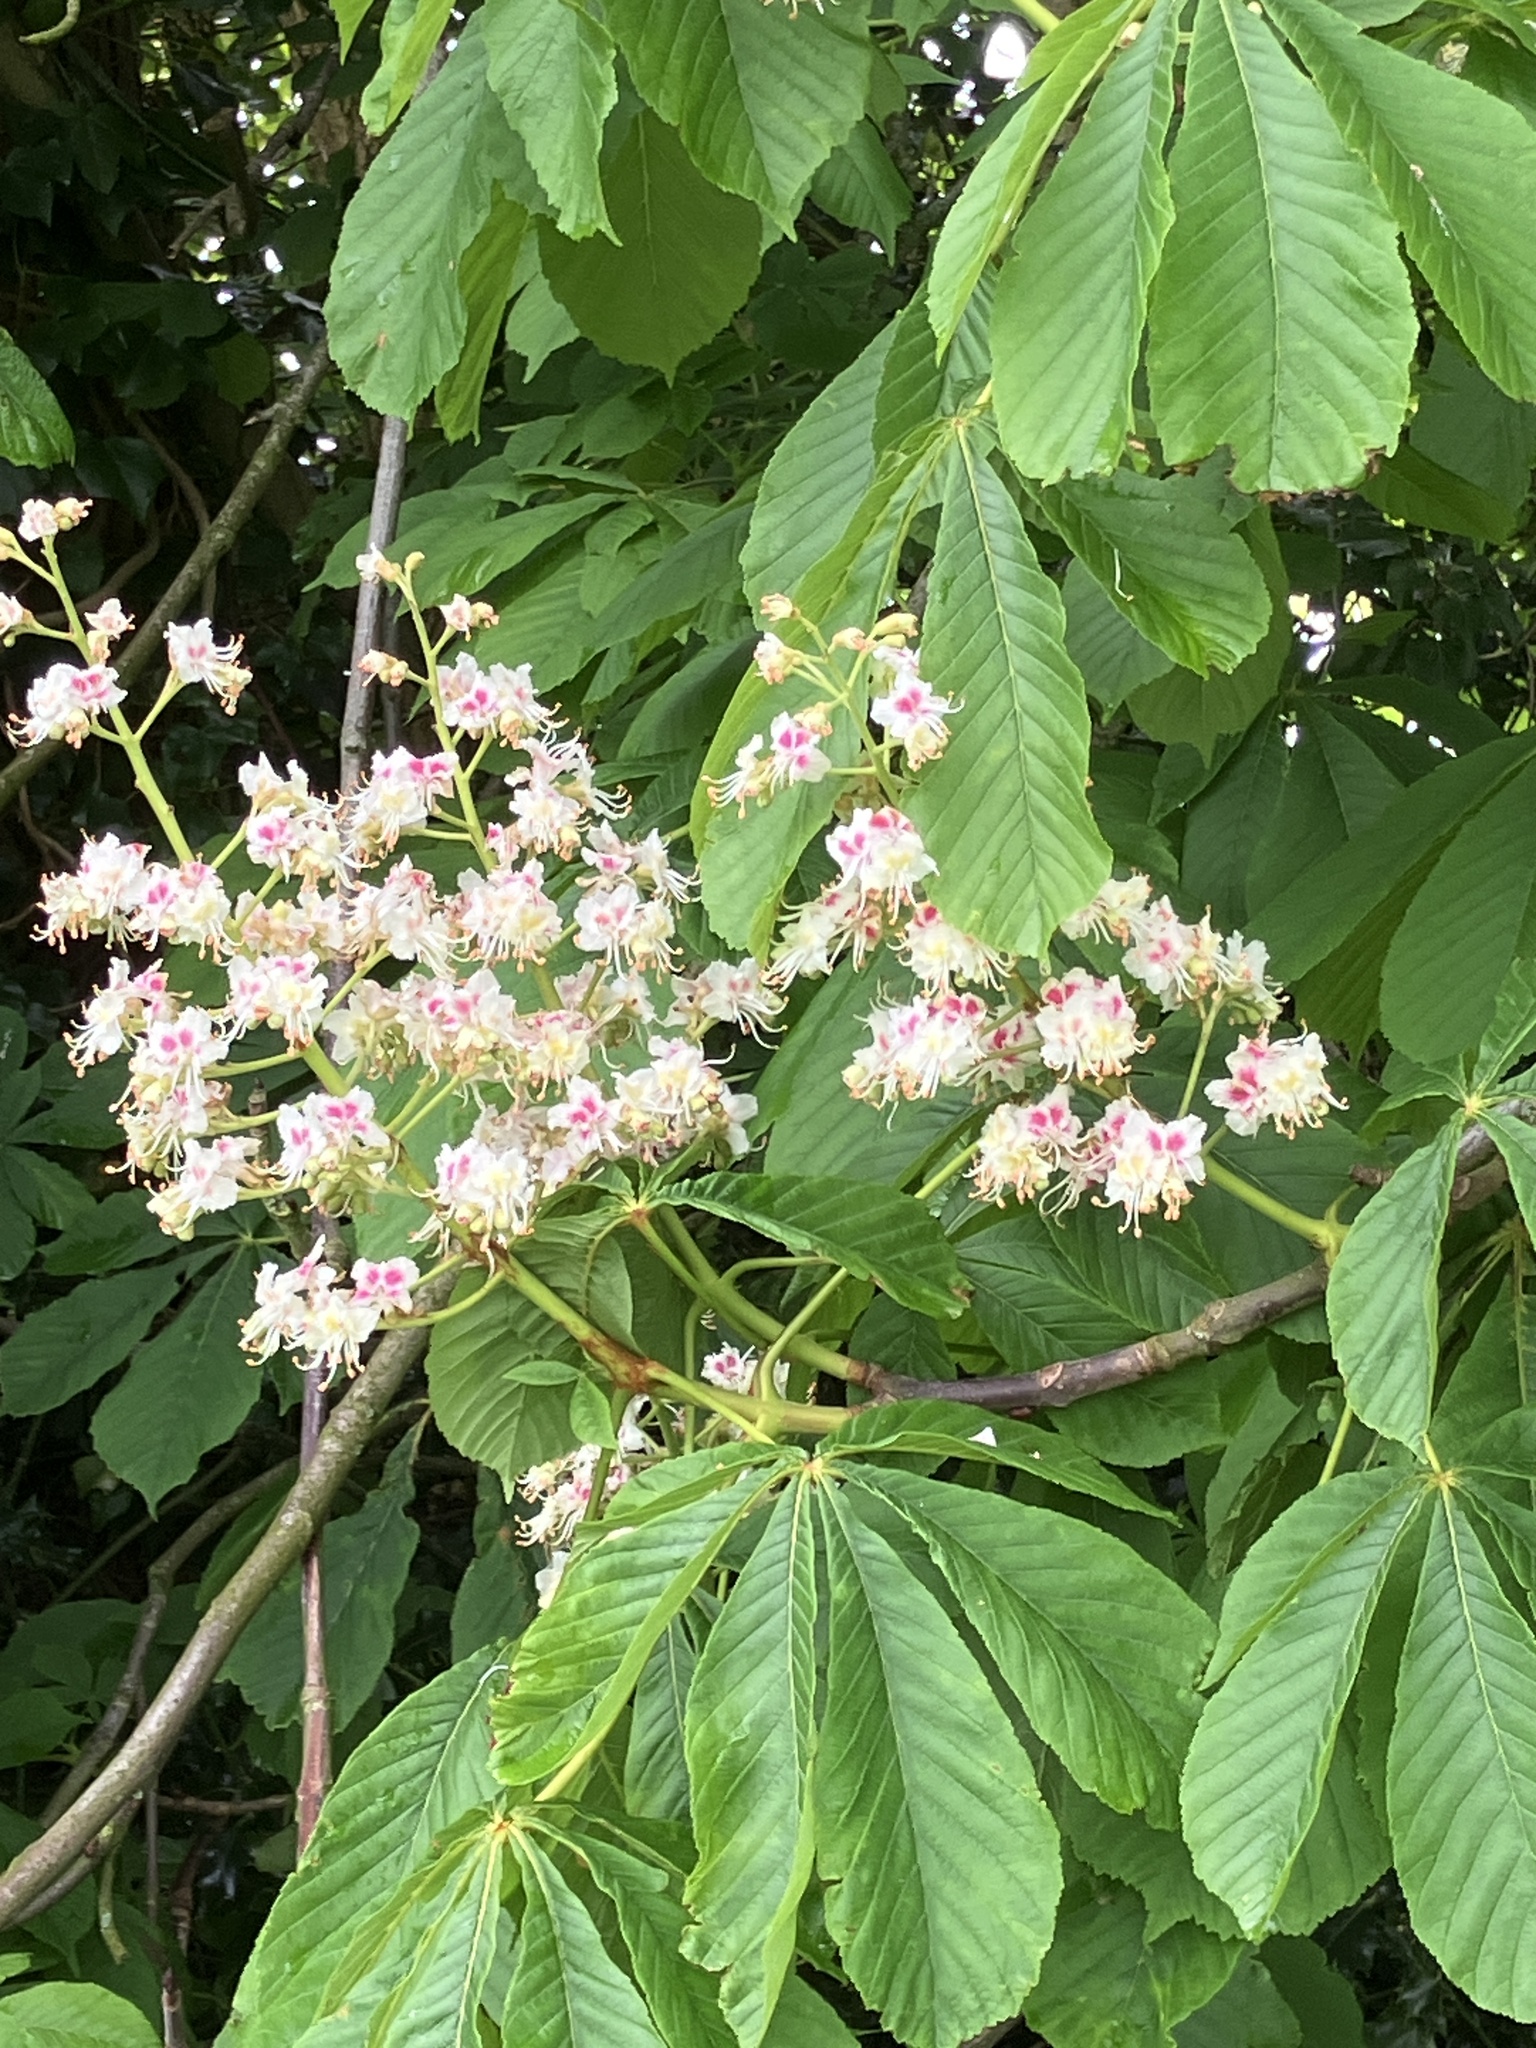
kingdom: Plantae
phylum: Tracheophyta
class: Magnoliopsida
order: Sapindales
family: Sapindaceae
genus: Aesculus
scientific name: Aesculus hippocastanum
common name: Horse-chestnut
